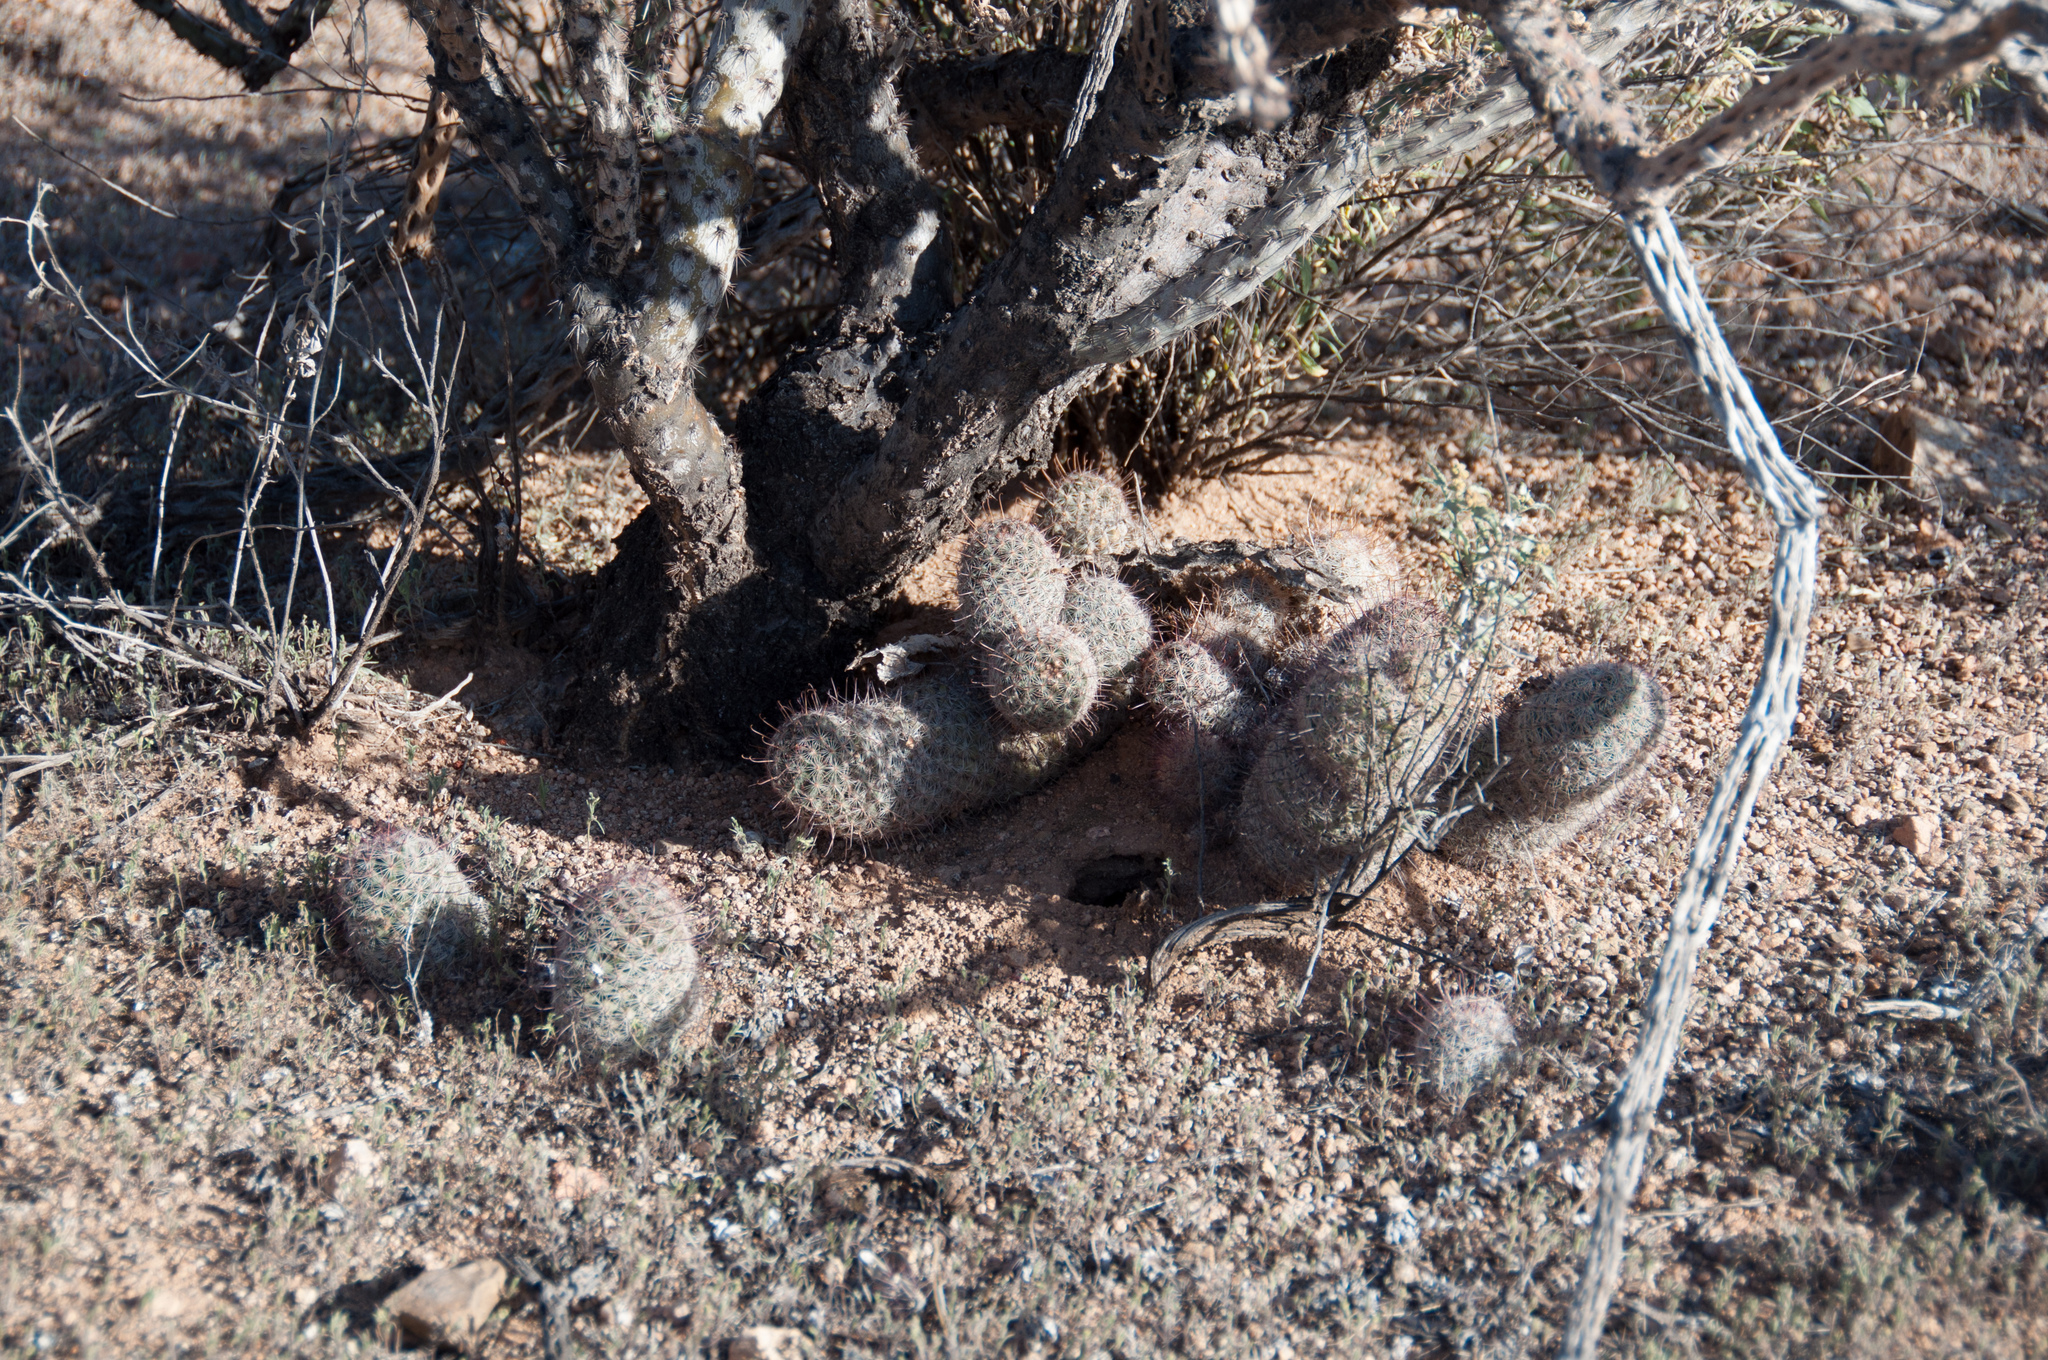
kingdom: Plantae
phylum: Tracheophyta
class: Magnoliopsida
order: Caryophyllales
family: Cactaceae
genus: Cochemiea
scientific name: Cochemiea grahamii
